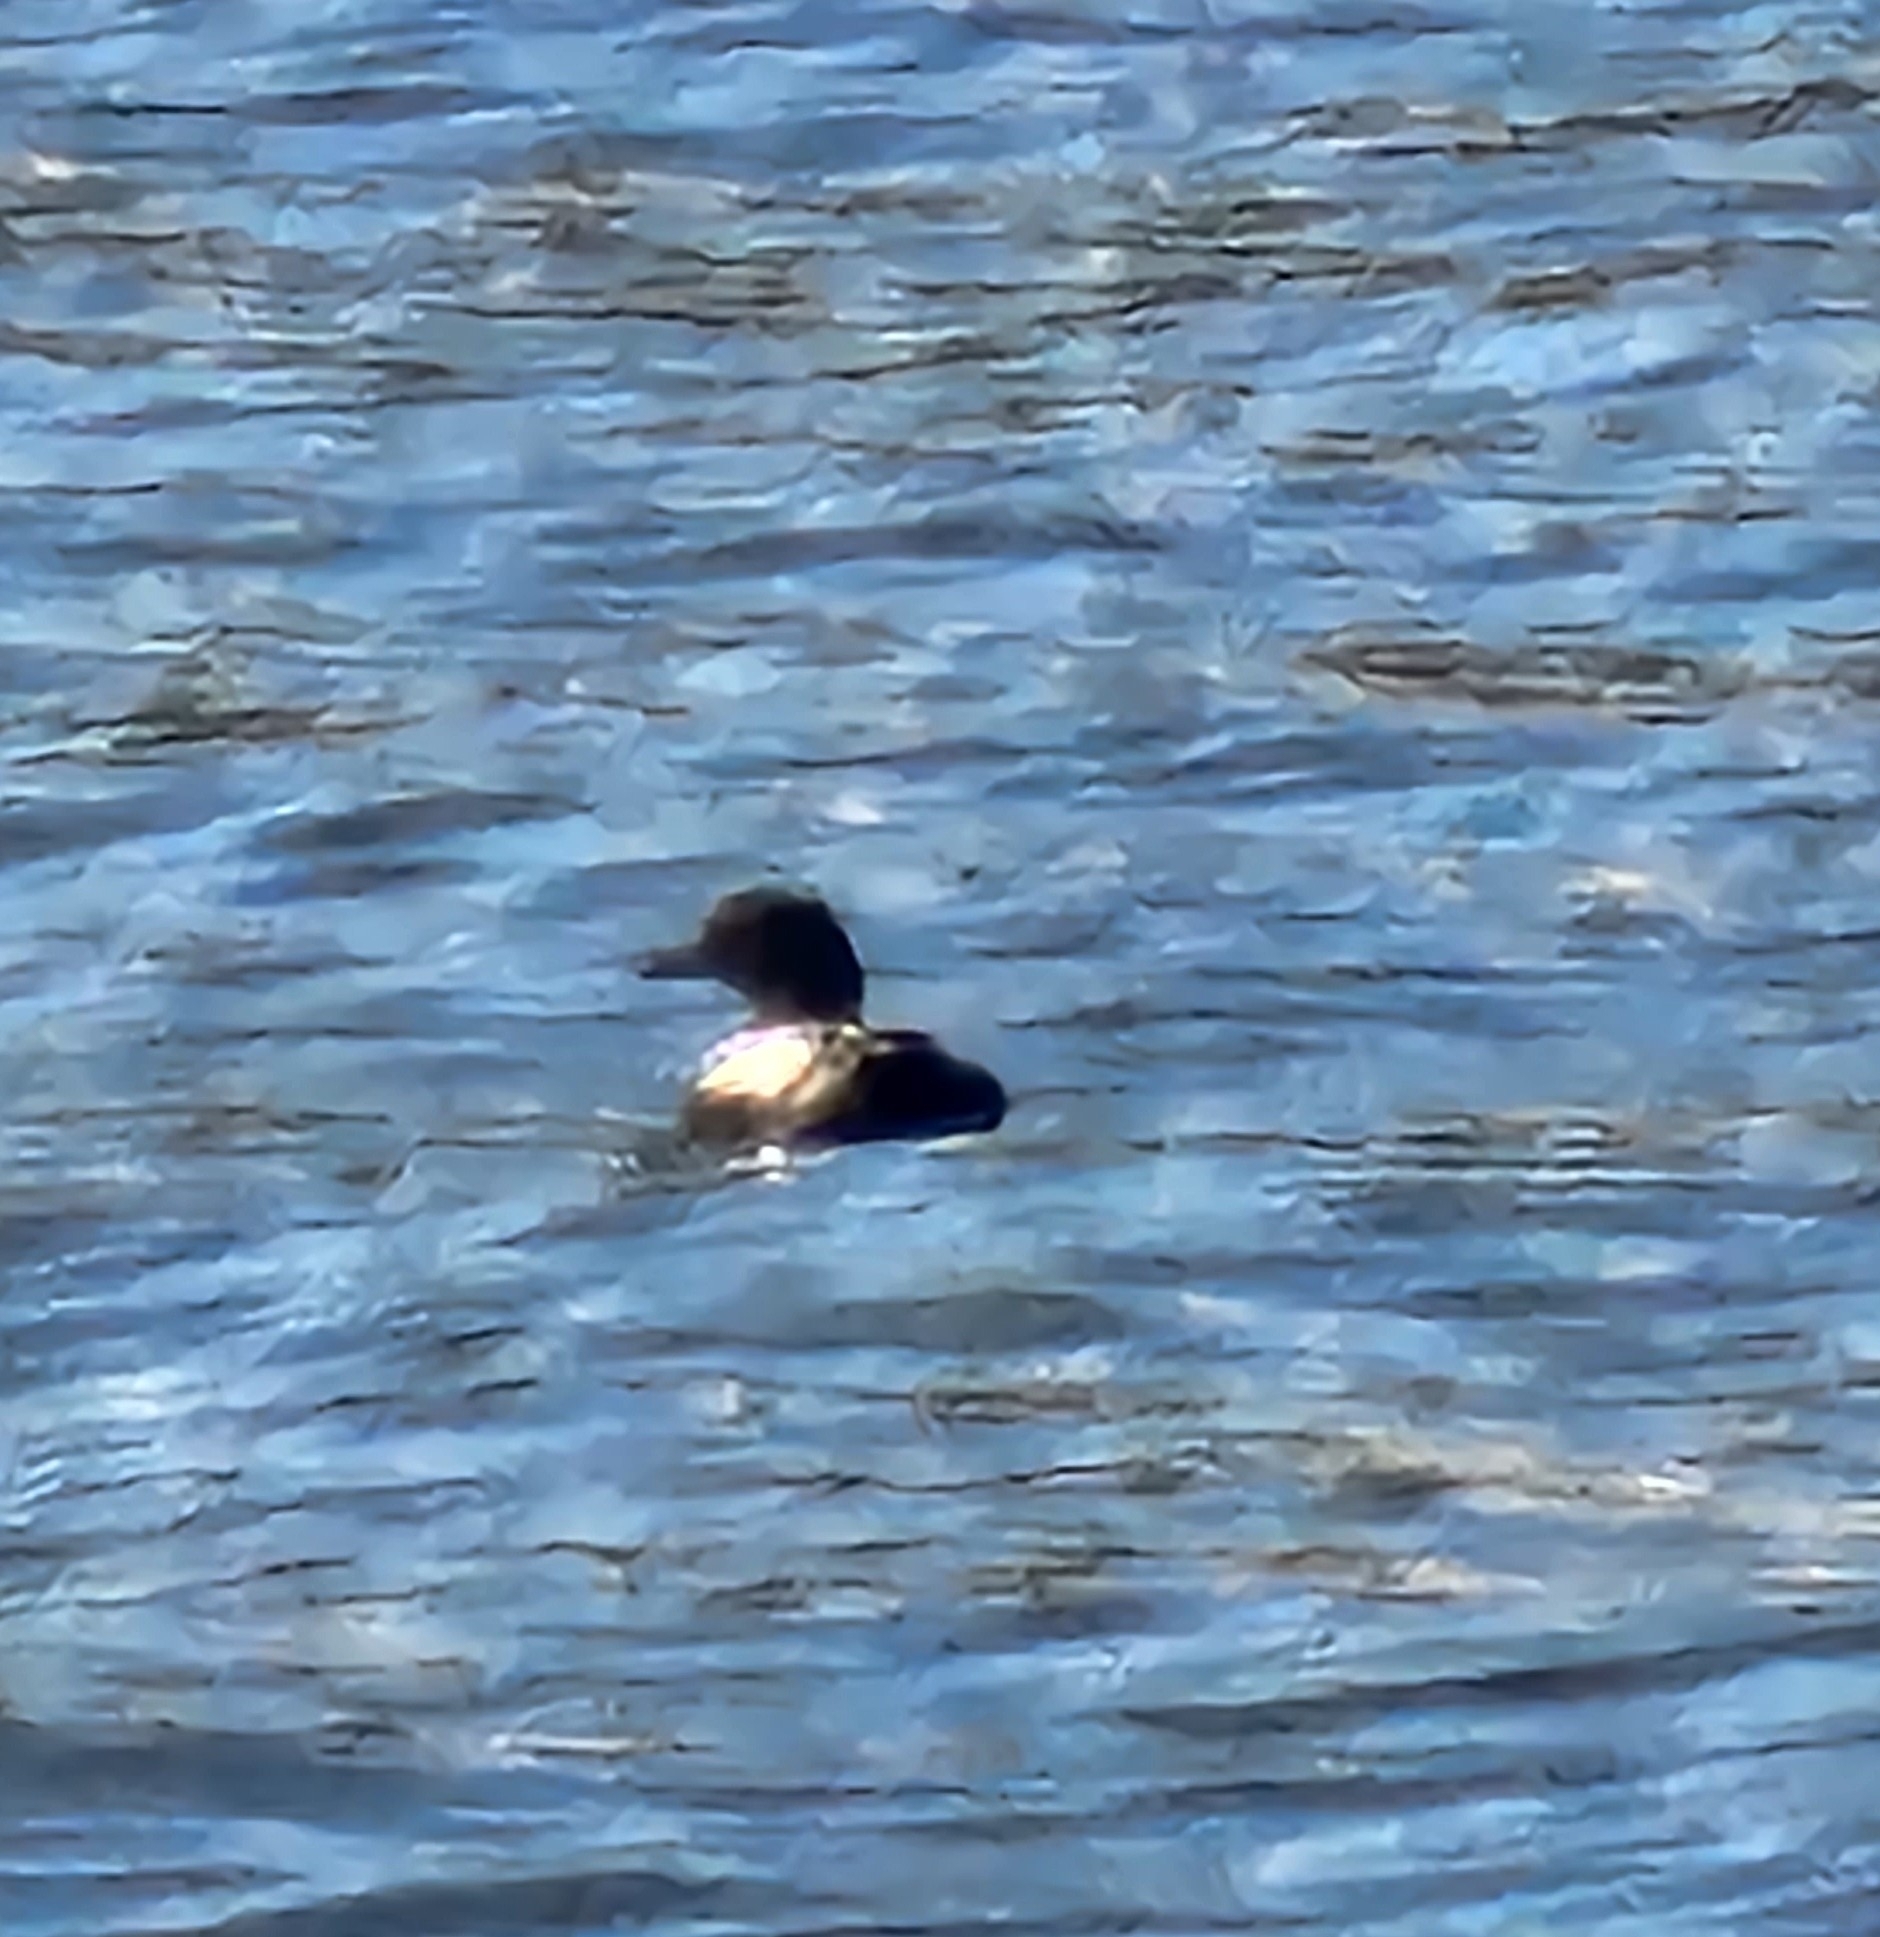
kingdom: Animalia
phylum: Chordata
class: Aves
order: Charadriiformes
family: Alcidae
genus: Cepphus
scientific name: Cepphus columba
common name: Pigeon guillemot
